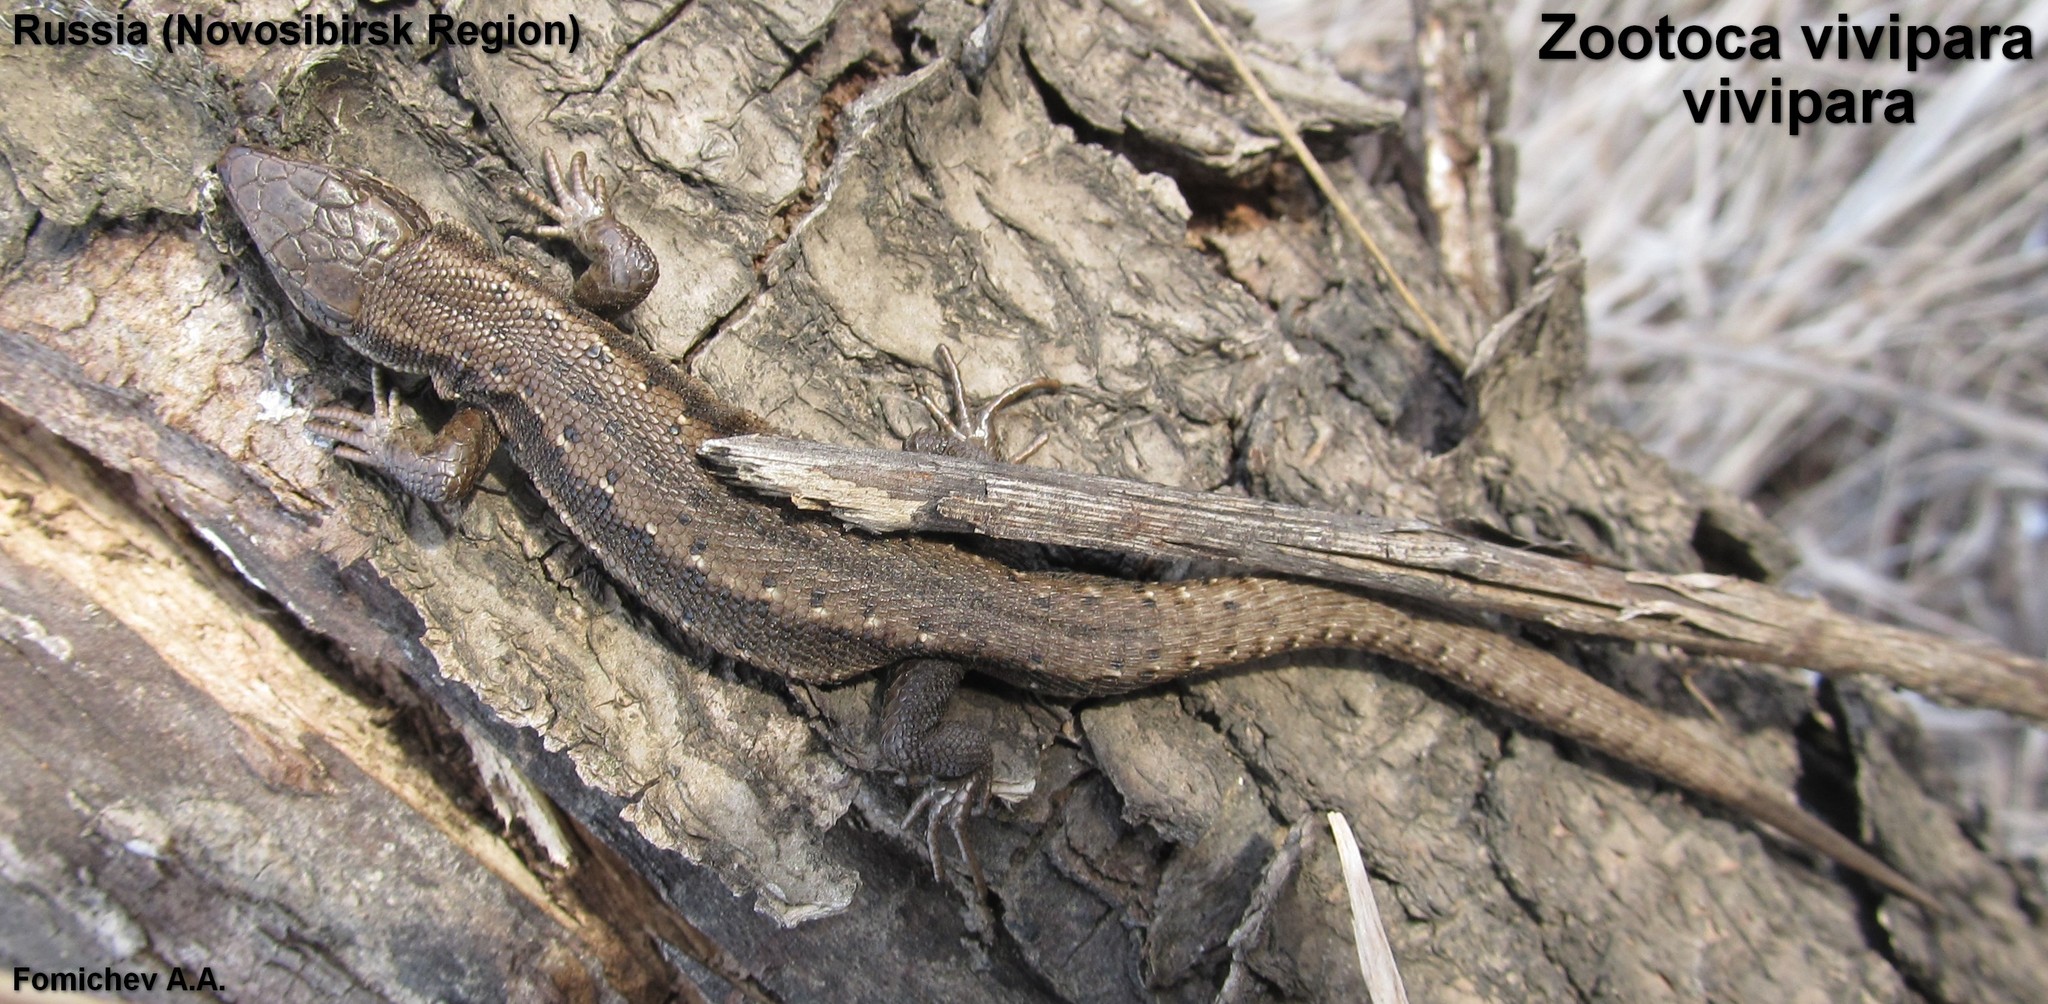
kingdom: Animalia
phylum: Chordata
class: Squamata
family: Lacertidae
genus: Zootoca
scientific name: Zootoca vivipara
